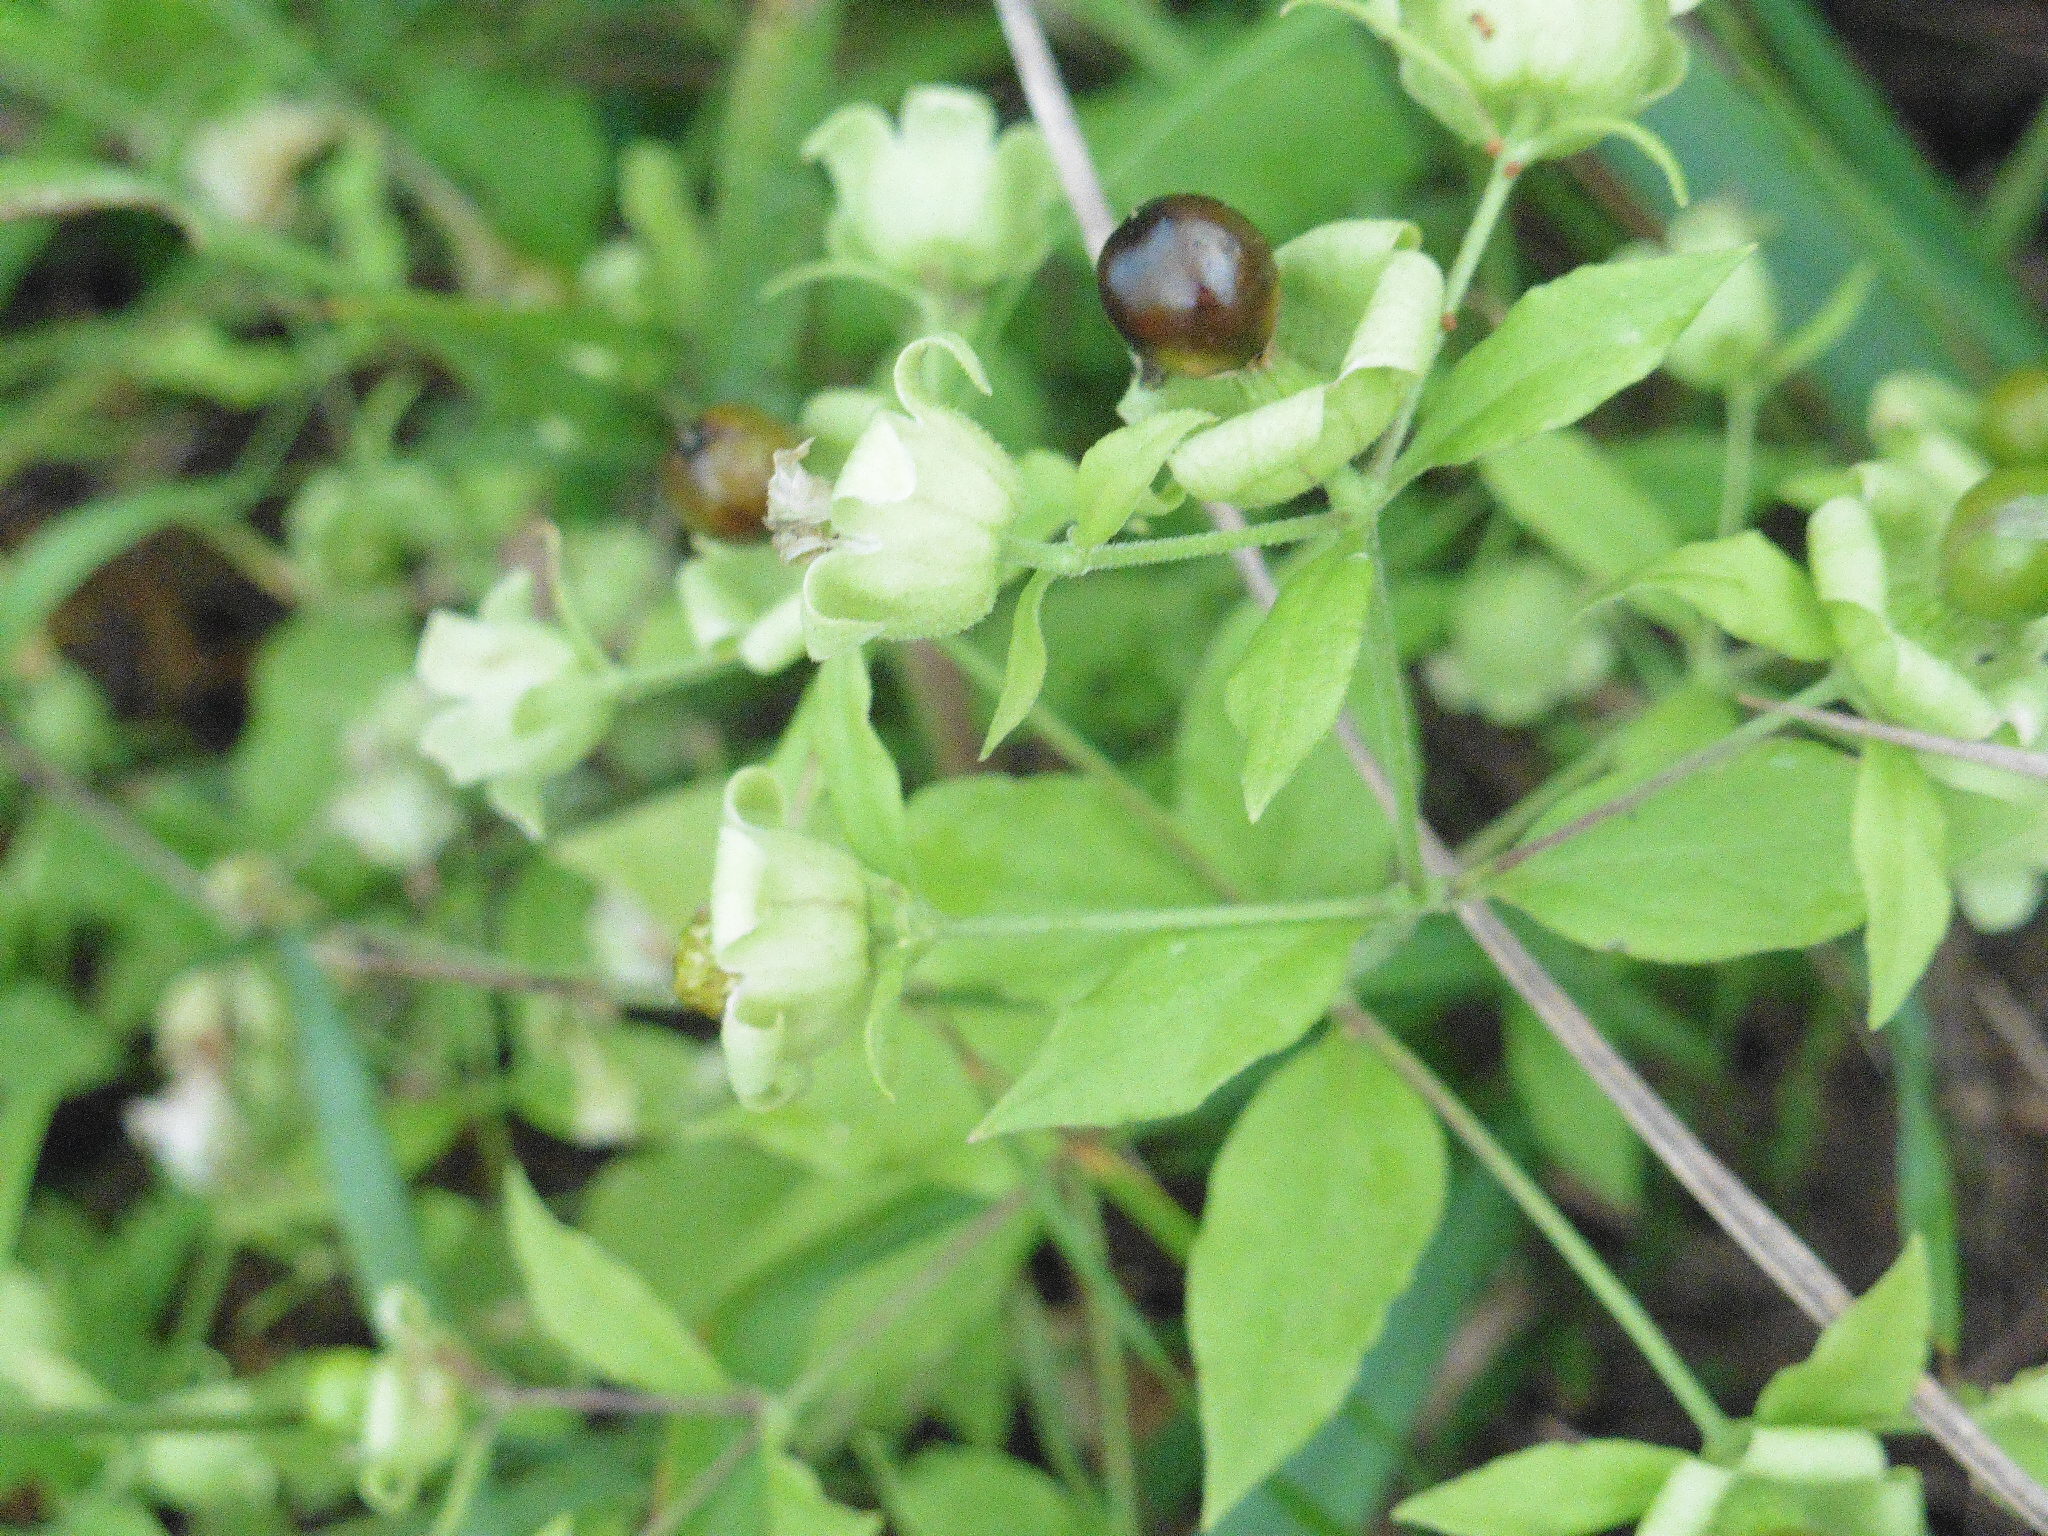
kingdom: Plantae
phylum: Tracheophyta
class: Magnoliopsida
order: Caryophyllales
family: Caryophyllaceae
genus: Silene
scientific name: Silene baccifera
